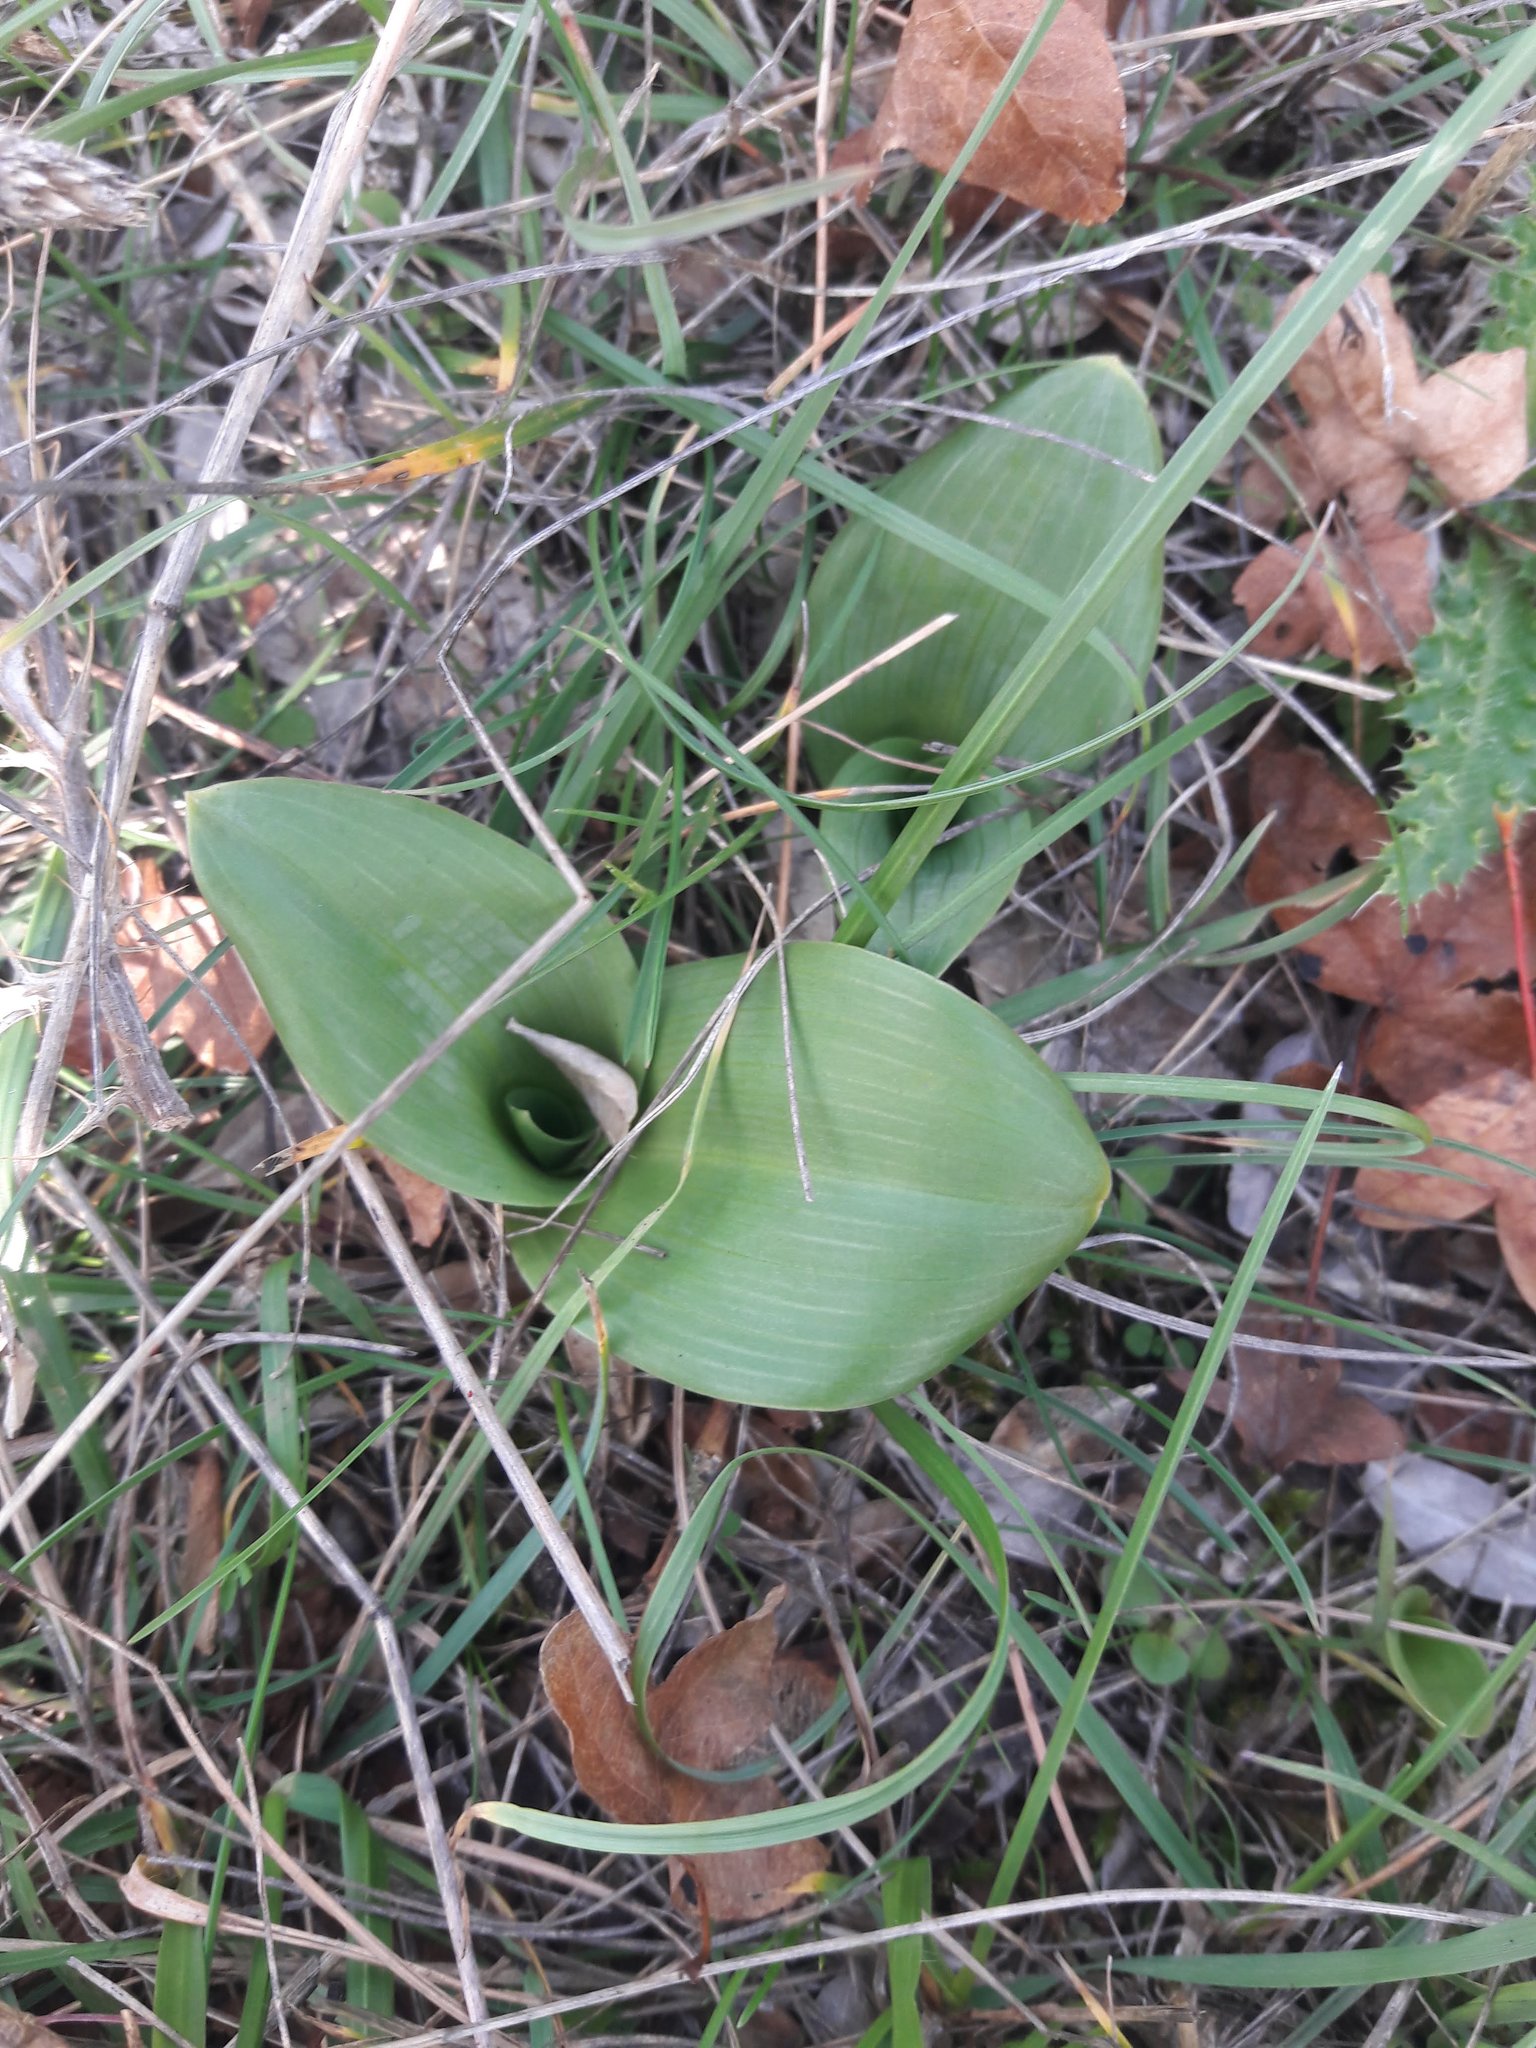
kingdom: Plantae
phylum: Tracheophyta
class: Liliopsida
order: Asparagales
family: Orchidaceae
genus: Himantoglossum
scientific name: Himantoglossum hircinum
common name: Lizard orchid
